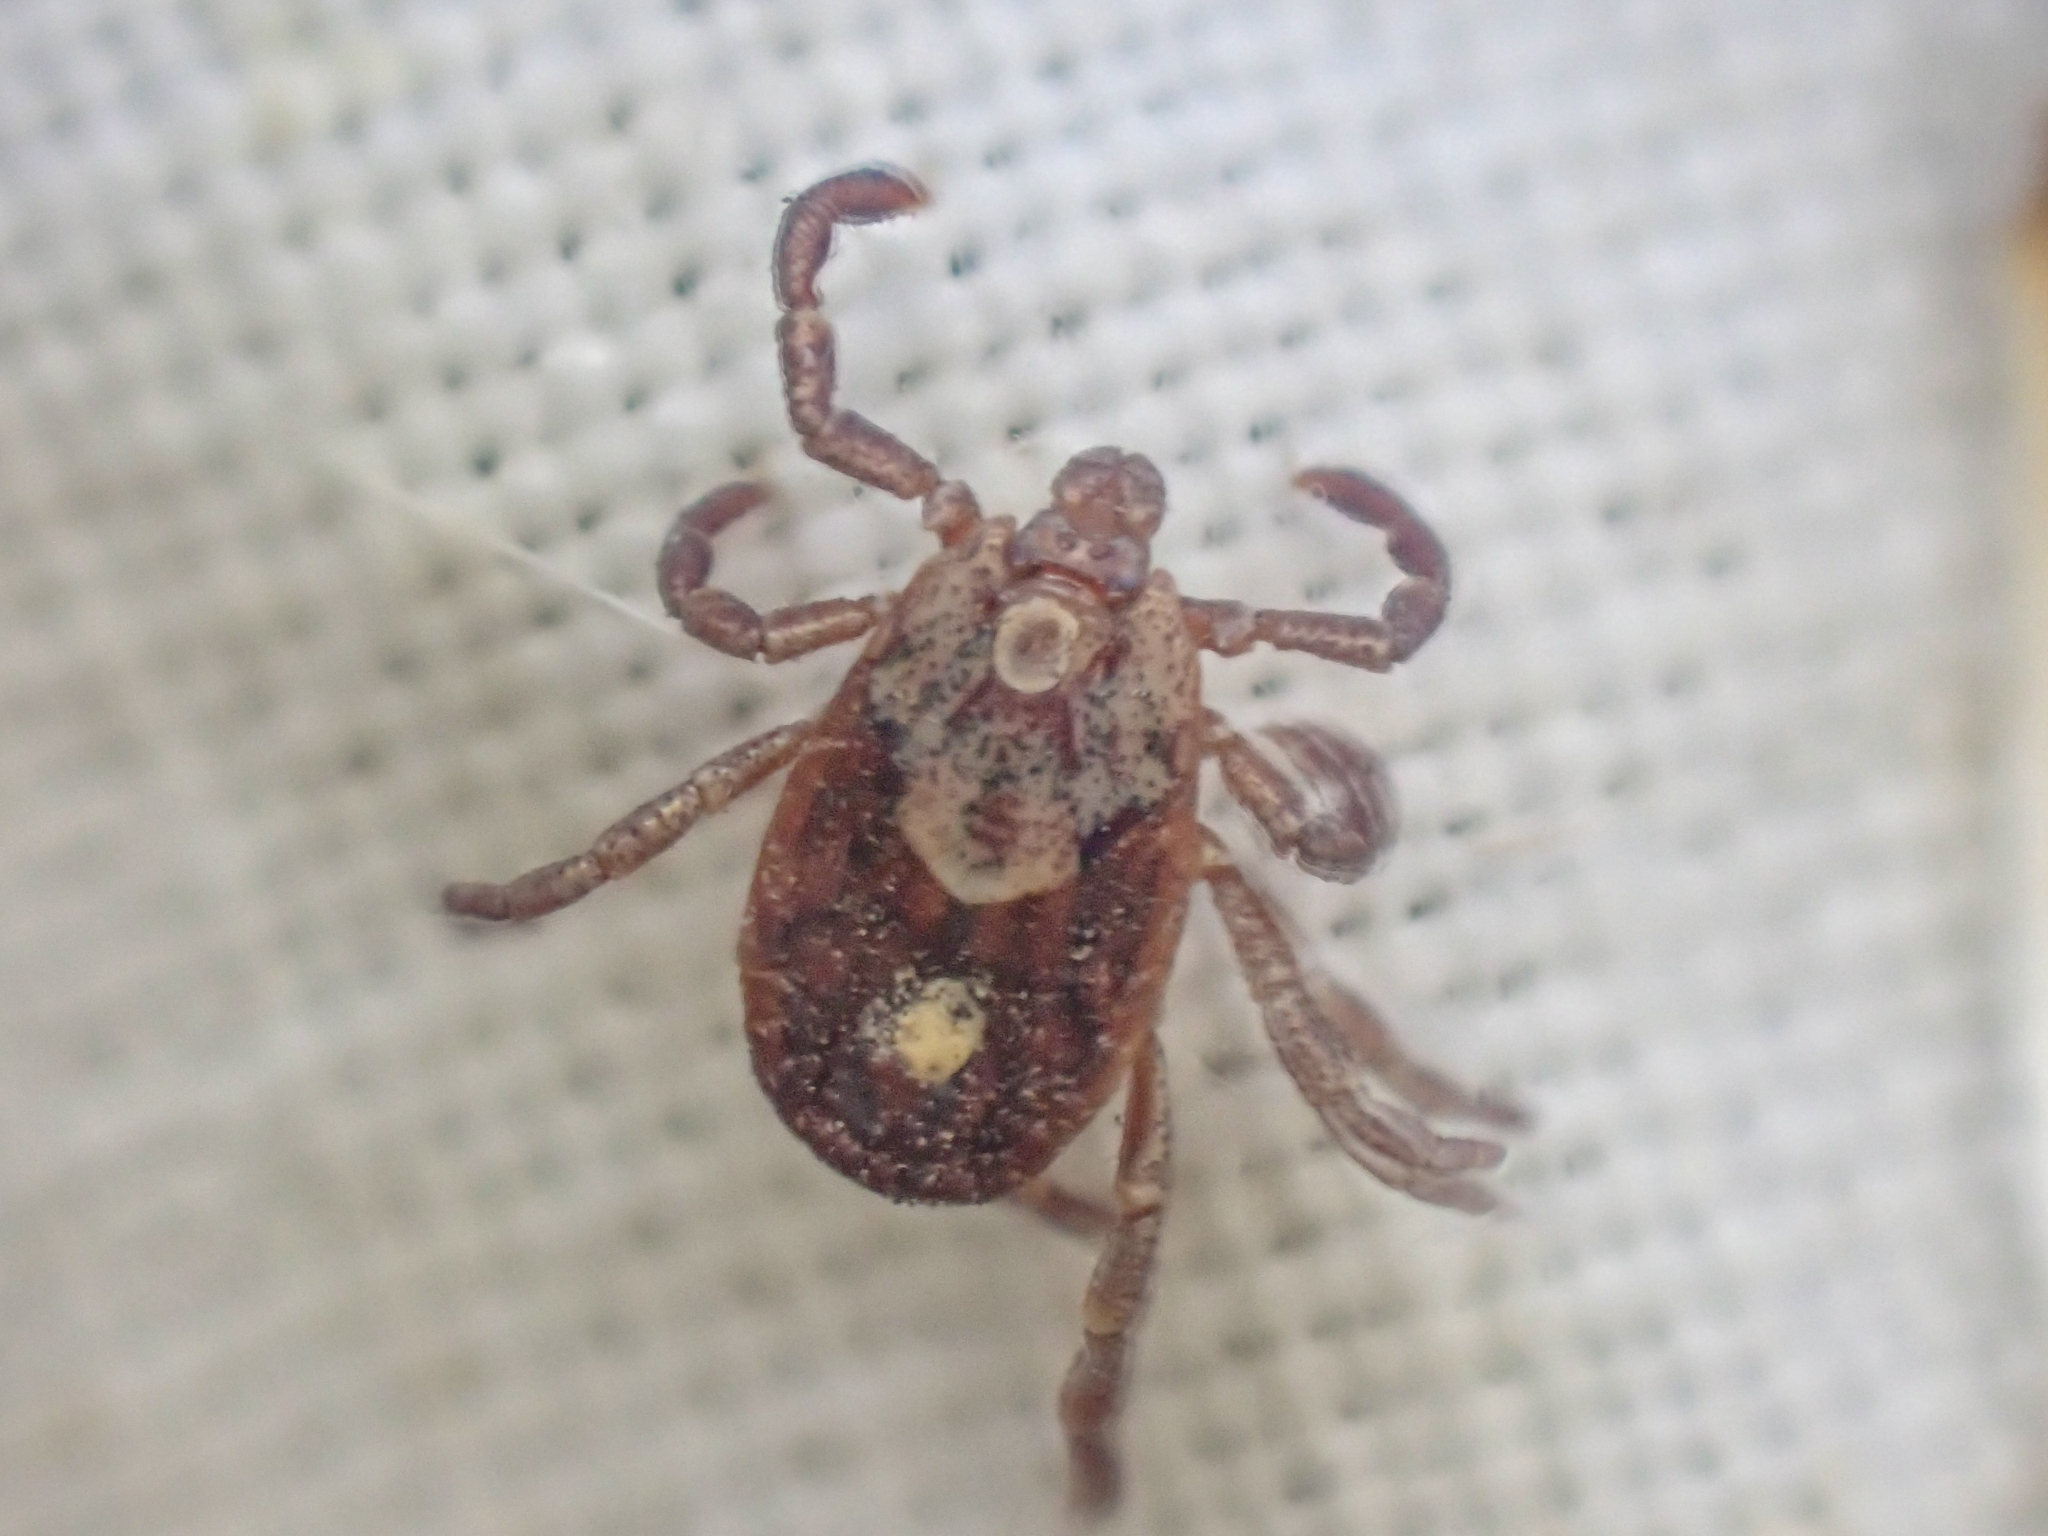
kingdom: Animalia
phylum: Arthropoda
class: Arachnida
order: Ixodida
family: Ixodidae
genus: Dermacentor
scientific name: Dermacentor occidentalis
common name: Net tick
